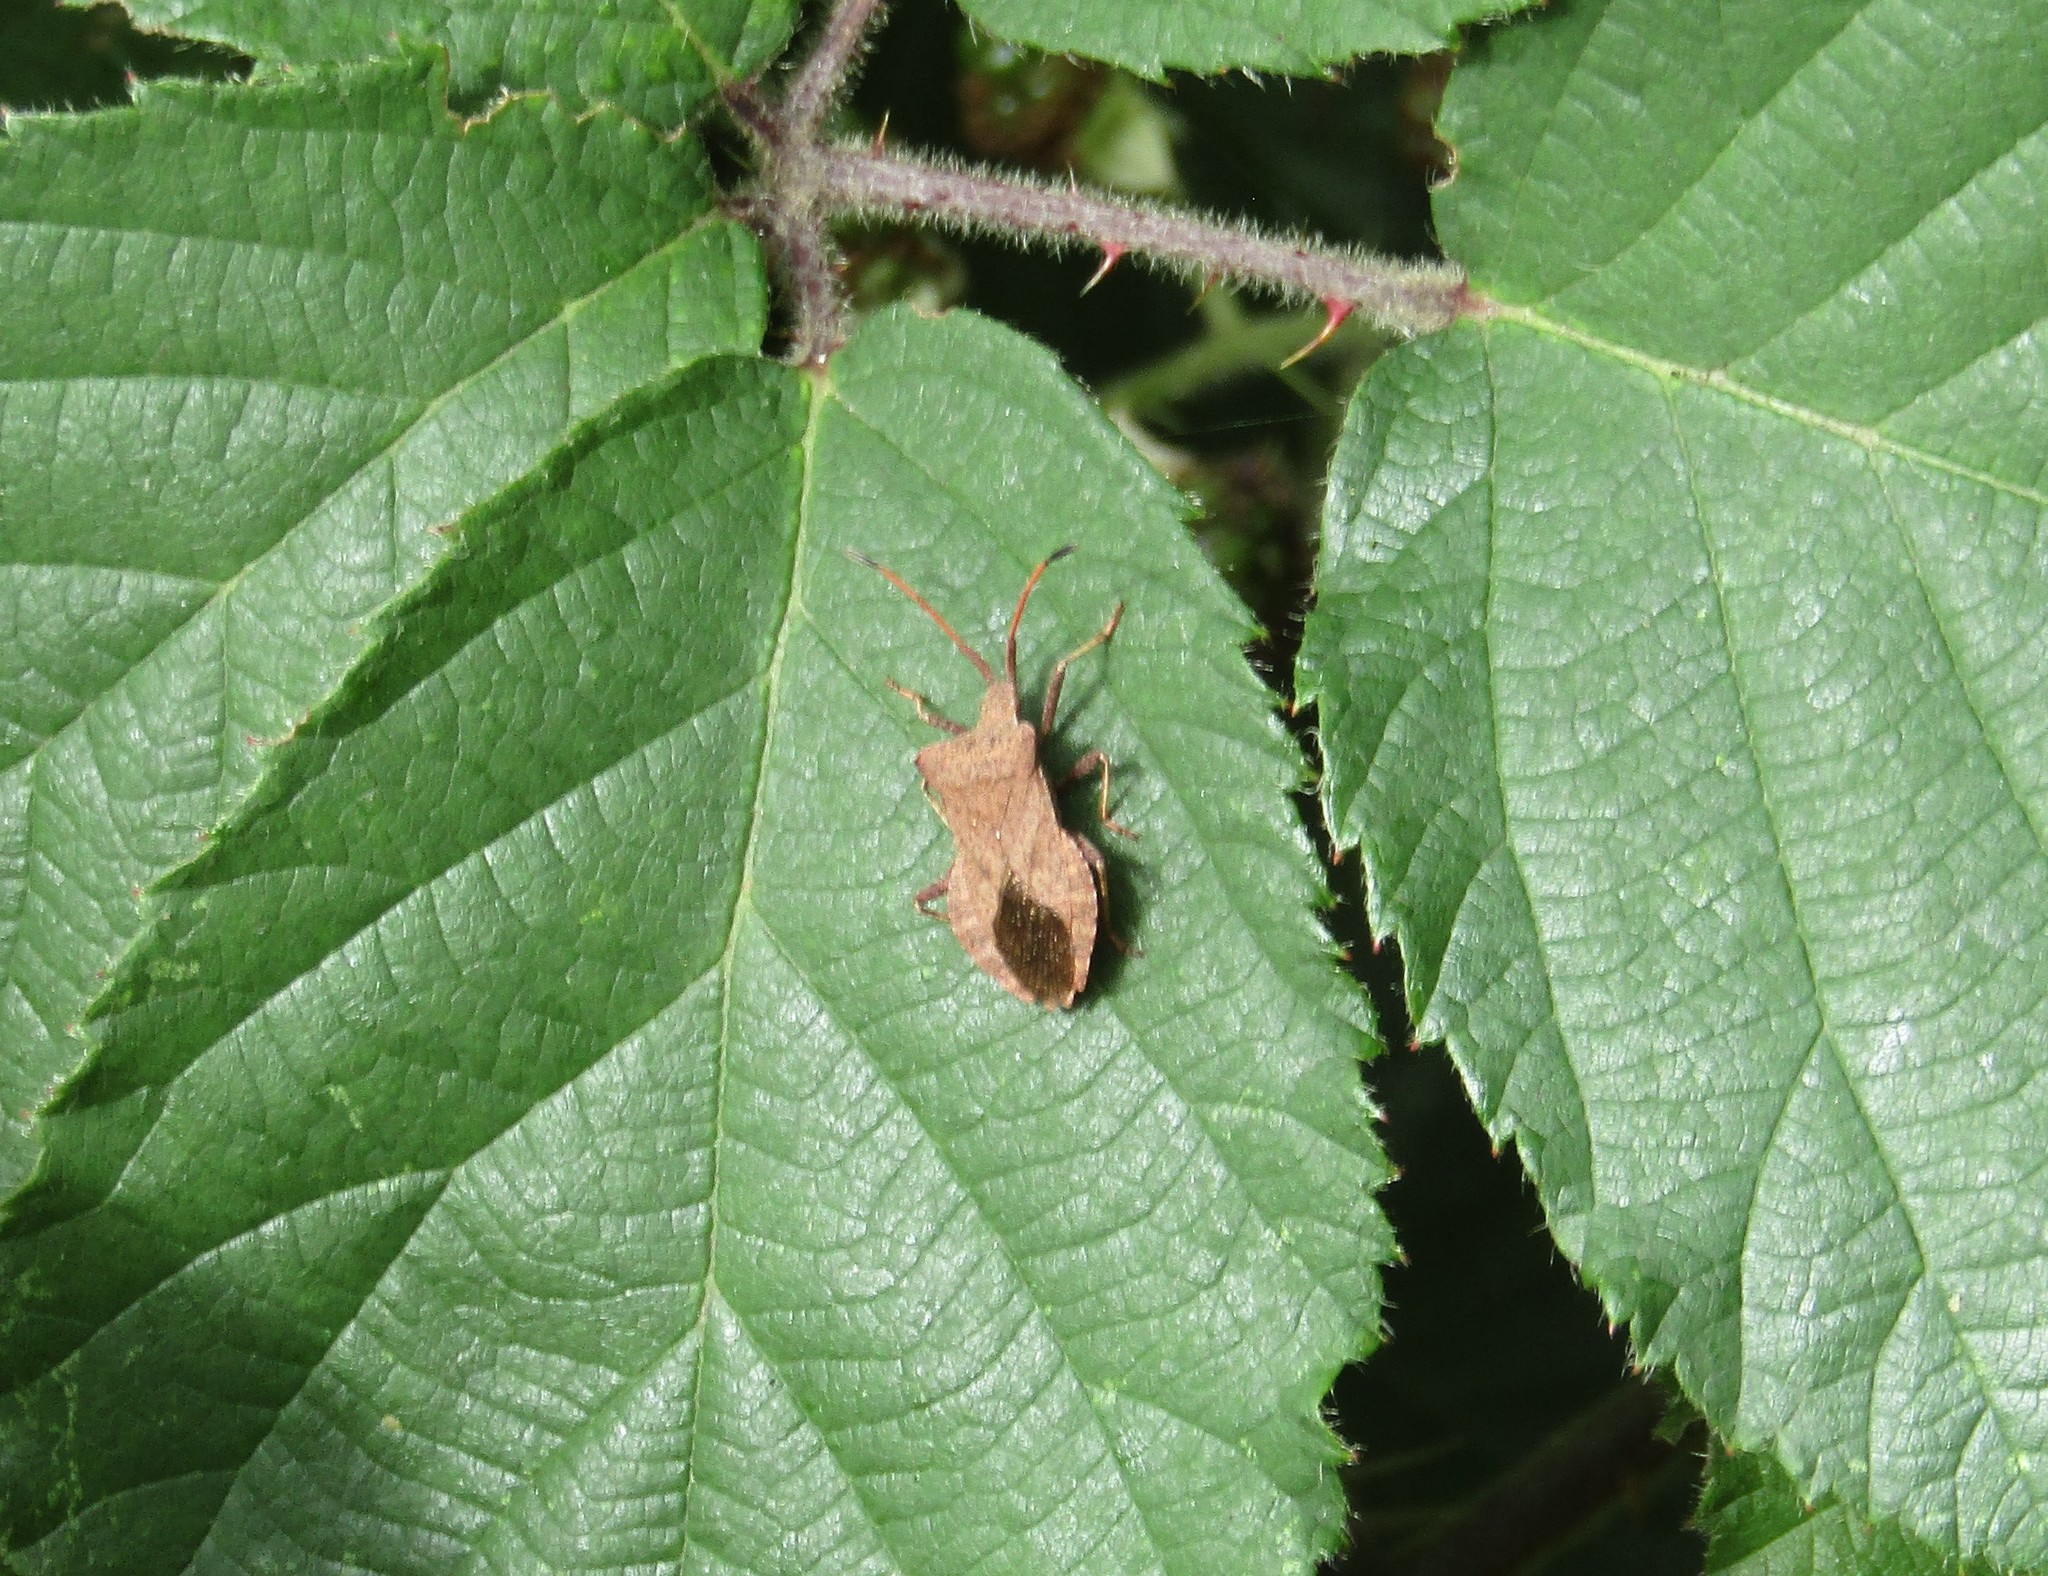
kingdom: Animalia
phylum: Arthropoda
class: Insecta
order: Hemiptera
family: Coreidae
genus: Coreus
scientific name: Coreus marginatus
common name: Dock bug
